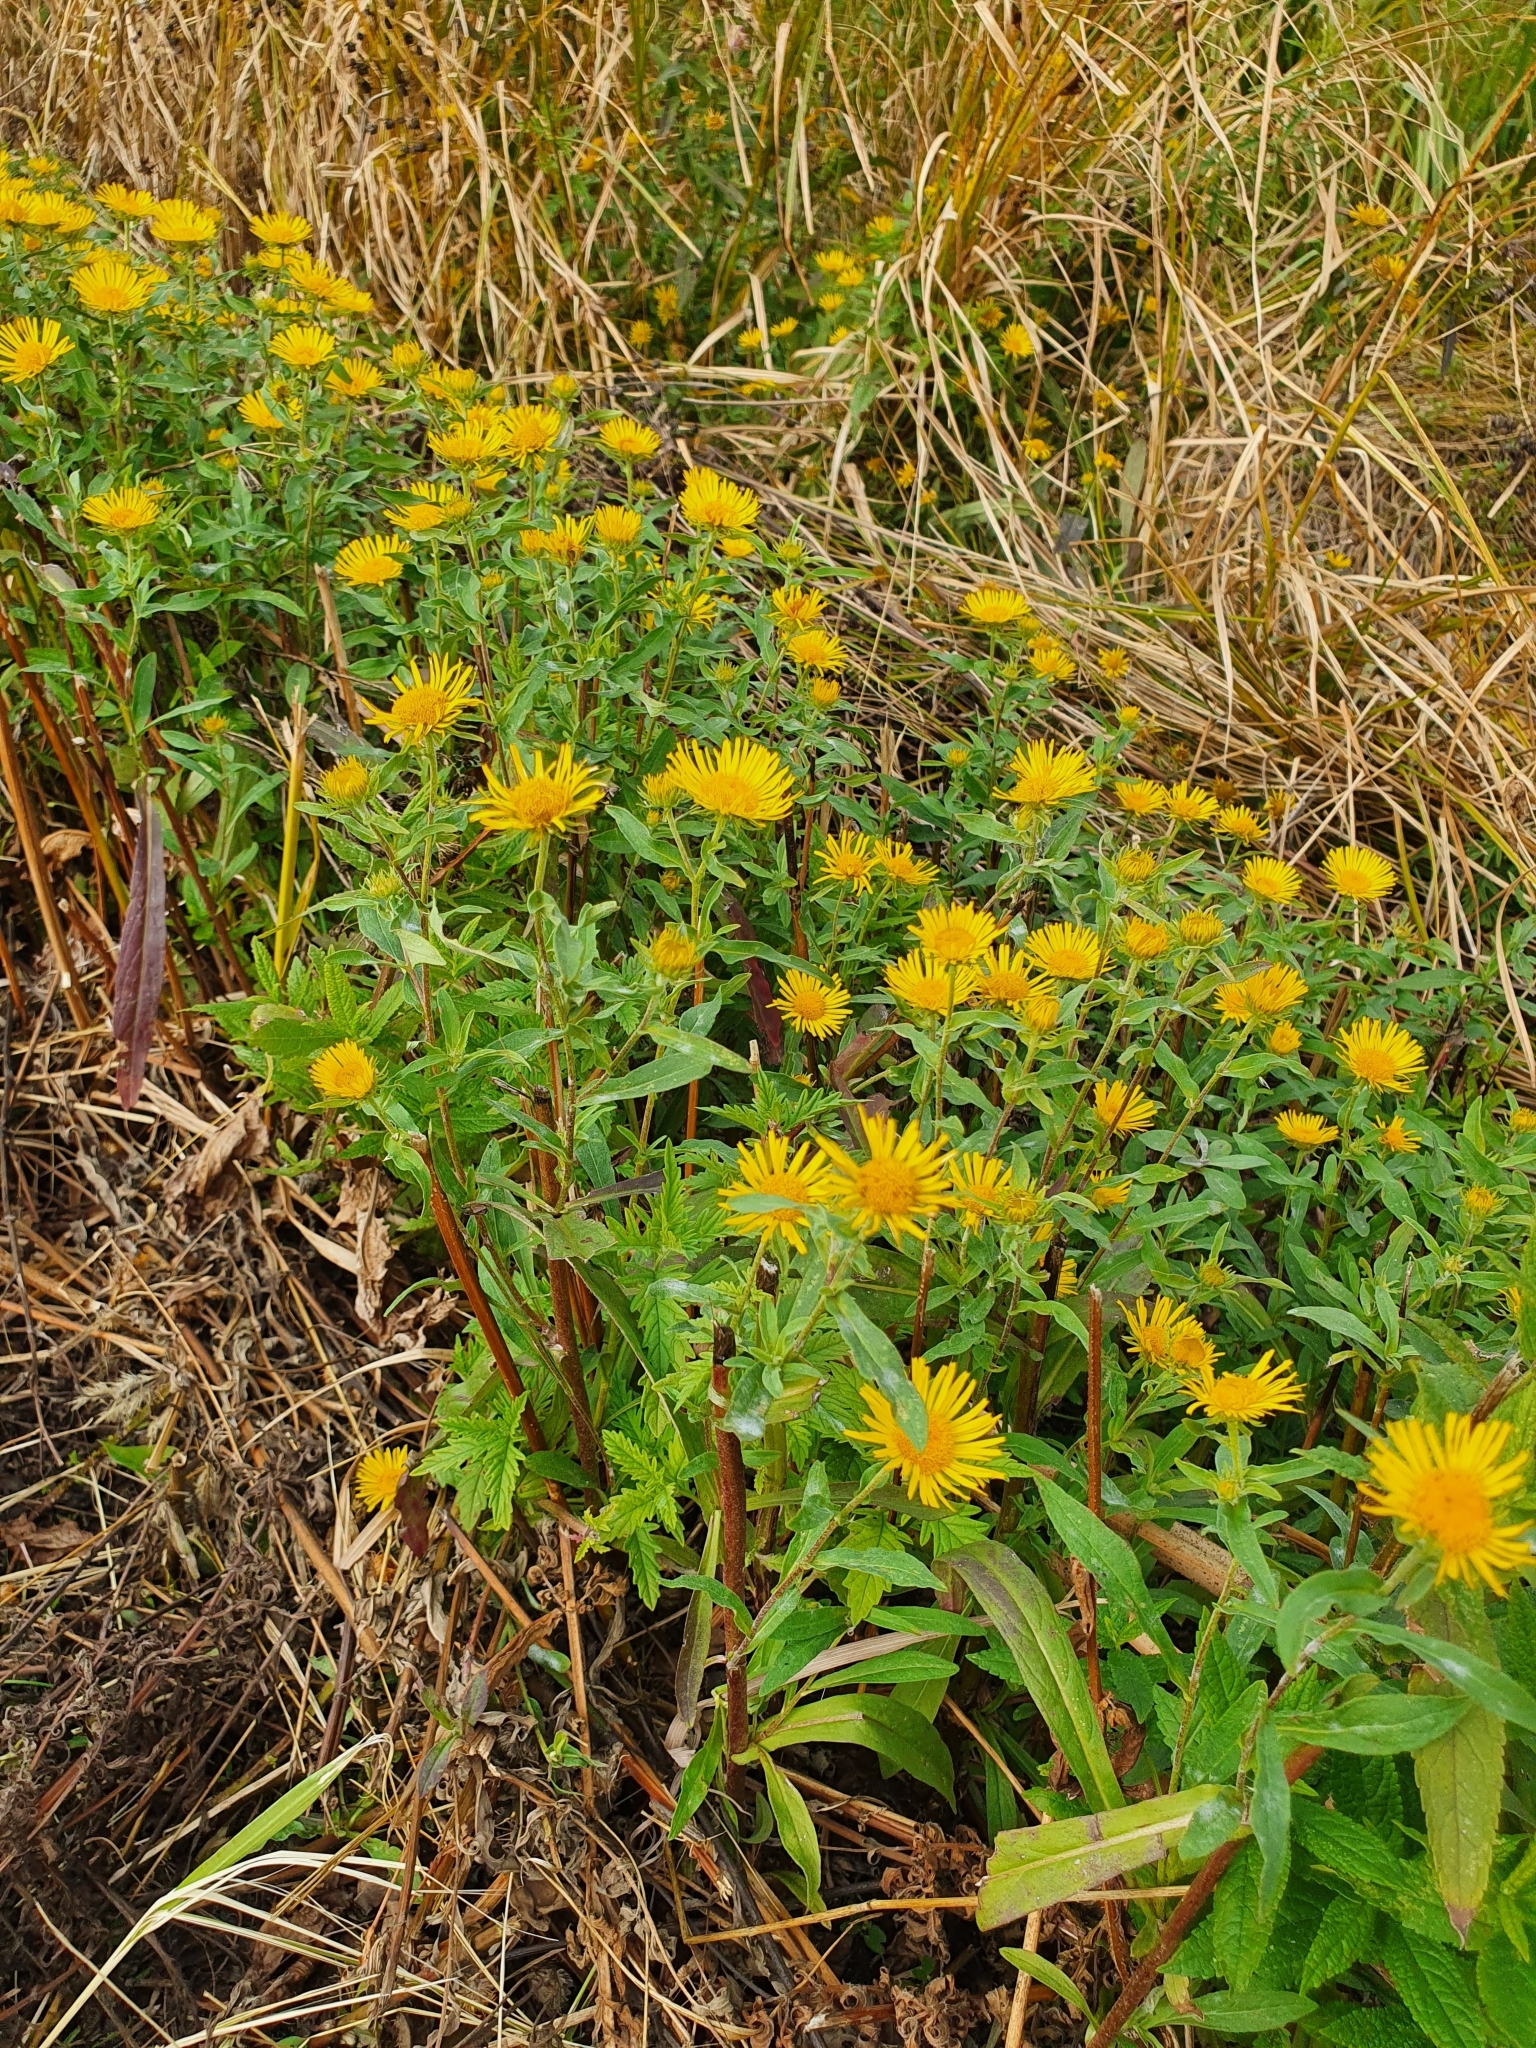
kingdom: Plantae
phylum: Tracheophyta
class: Magnoliopsida
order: Asterales
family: Asteraceae
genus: Pentanema
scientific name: Pentanema britannicum
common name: British elecampane
